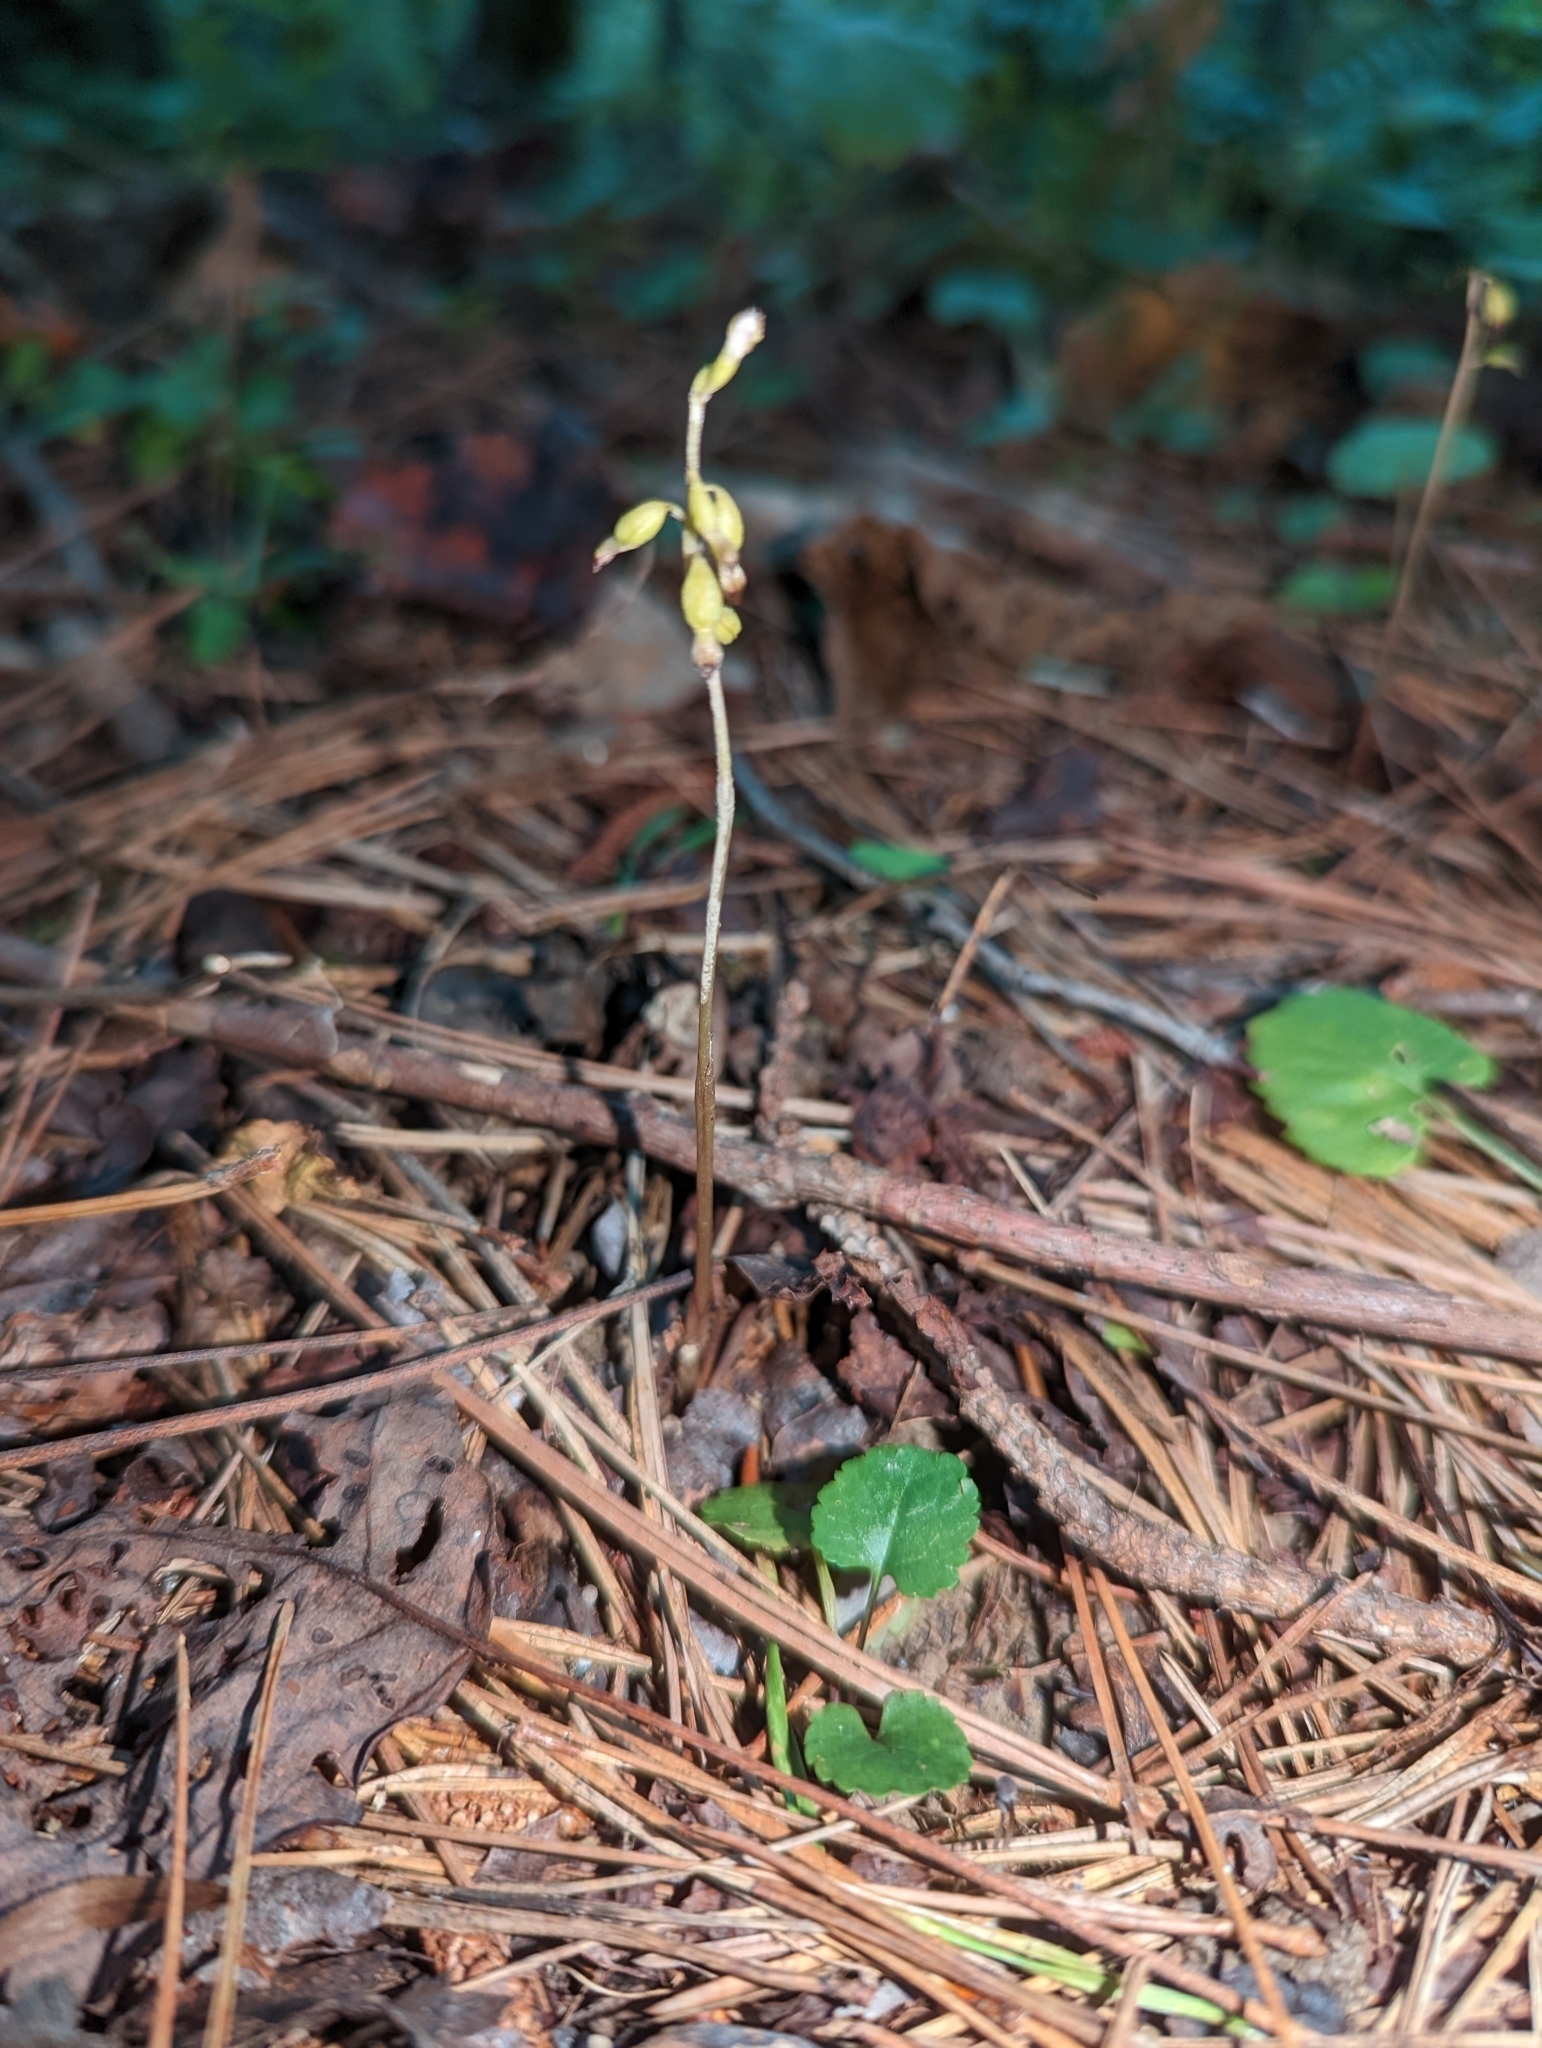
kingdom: Plantae
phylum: Tracheophyta
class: Liliopsida
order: Asparagales
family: Orchidaceae
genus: Corallorhiza
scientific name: Corallorhiza odontorhiza
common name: Autumn coralroot
